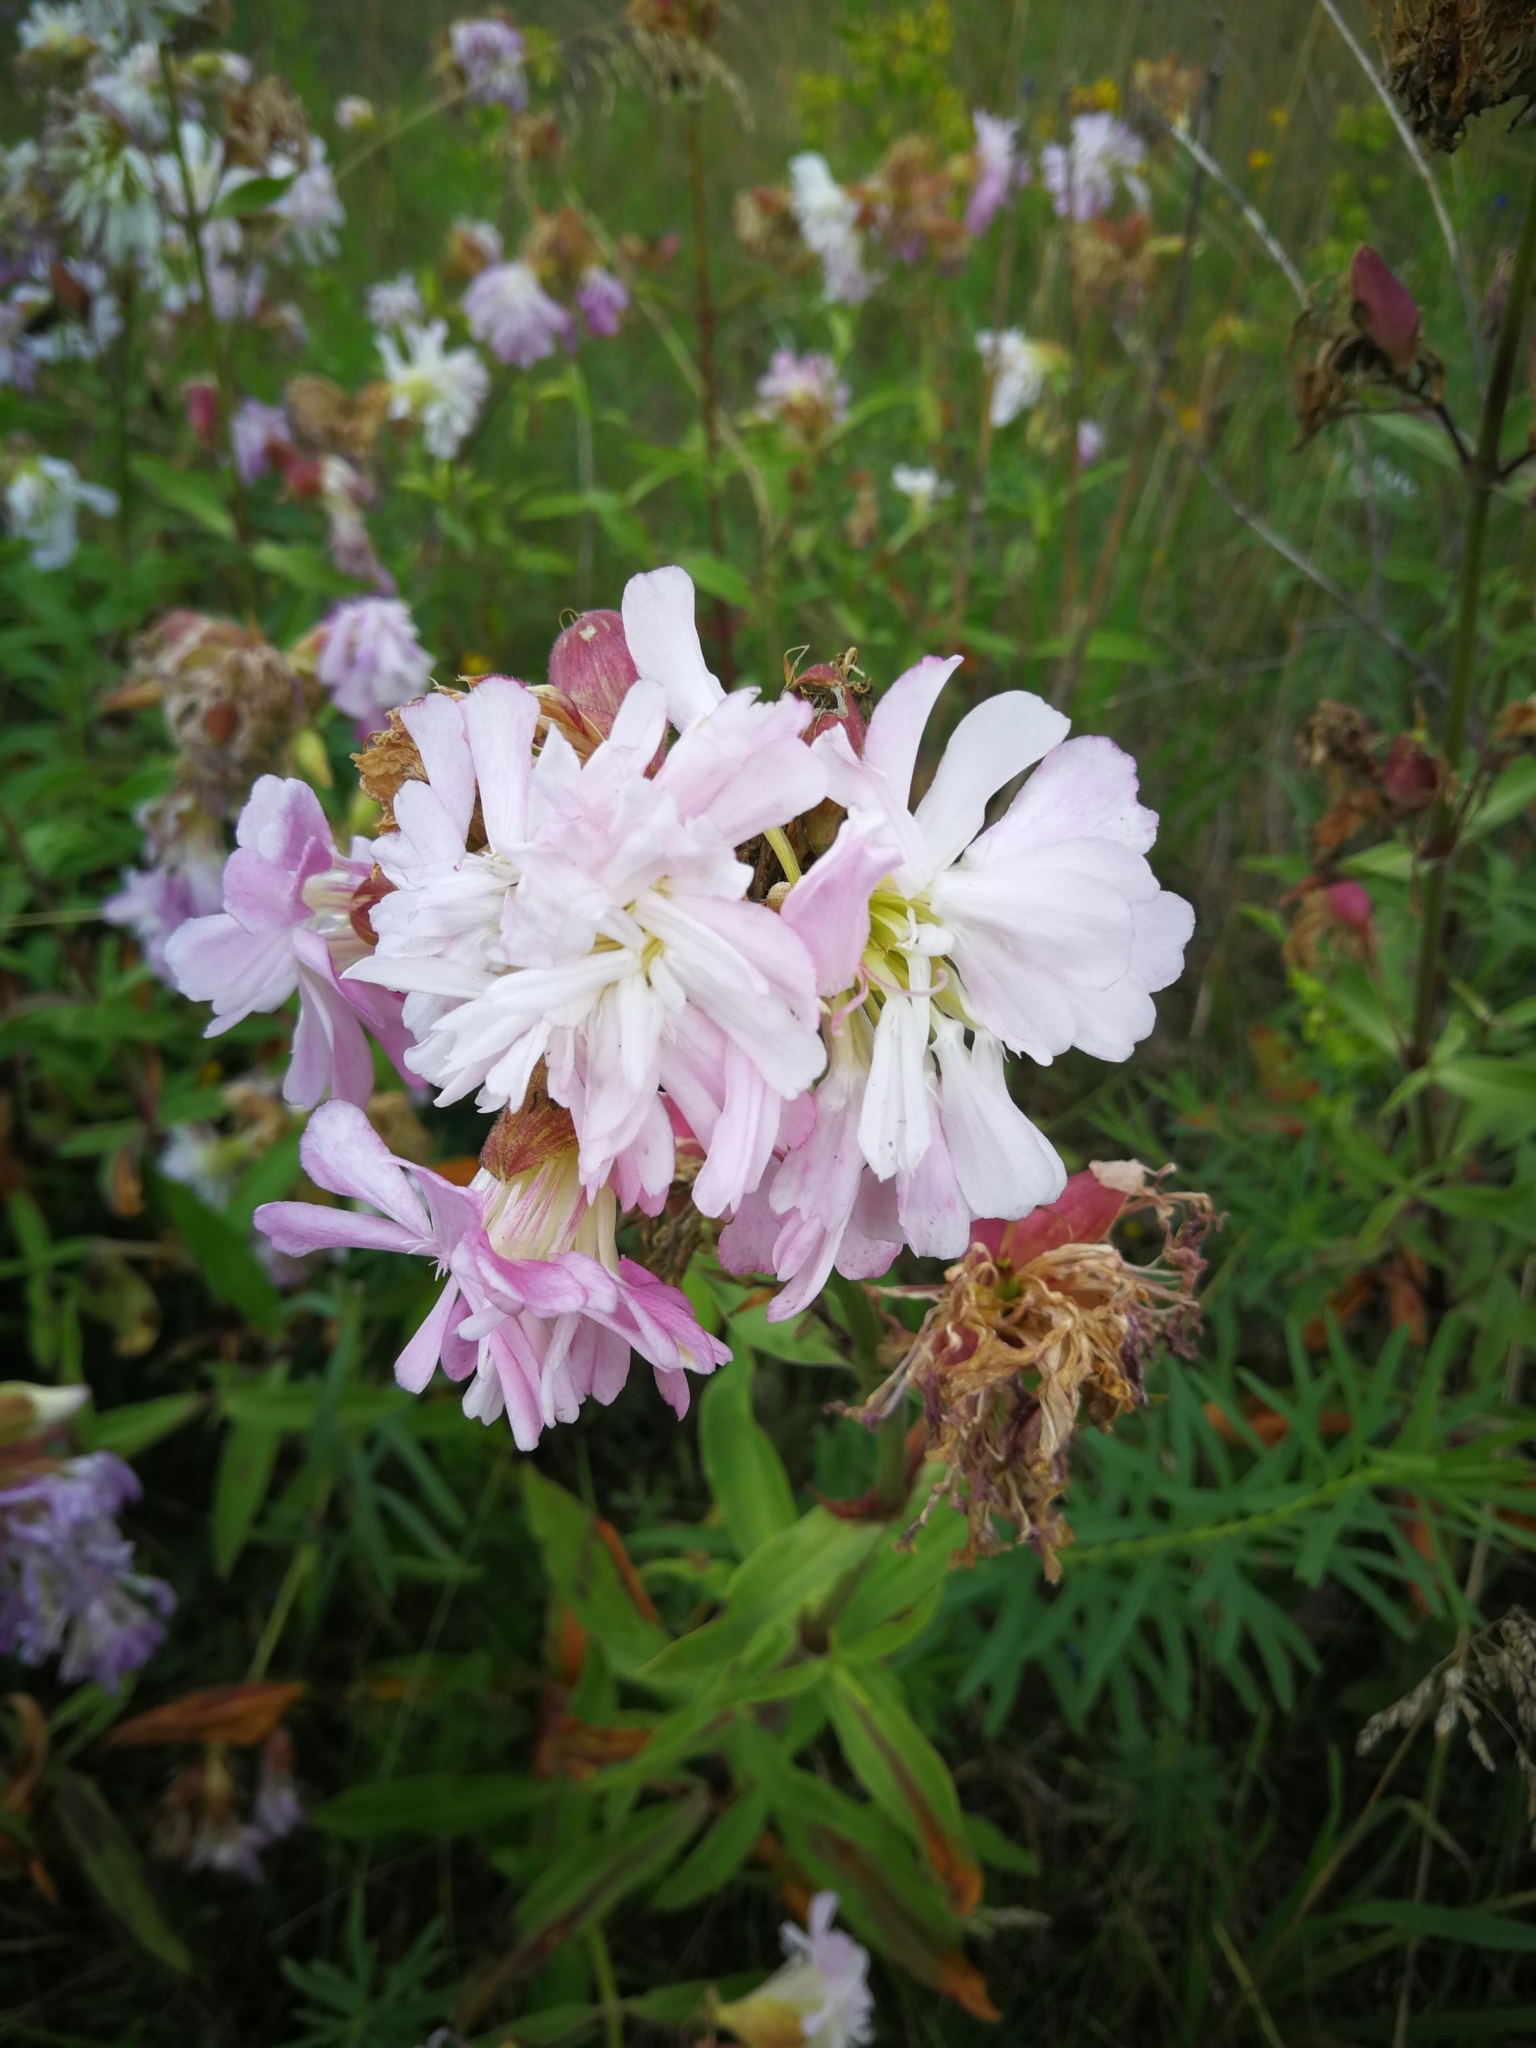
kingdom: Plantae
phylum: Tracheophyta
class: Magnoliopsida
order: Caryophyllales
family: Caryophyllaceae
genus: Saponaria
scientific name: Saponaria officinalis
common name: Soapwort
